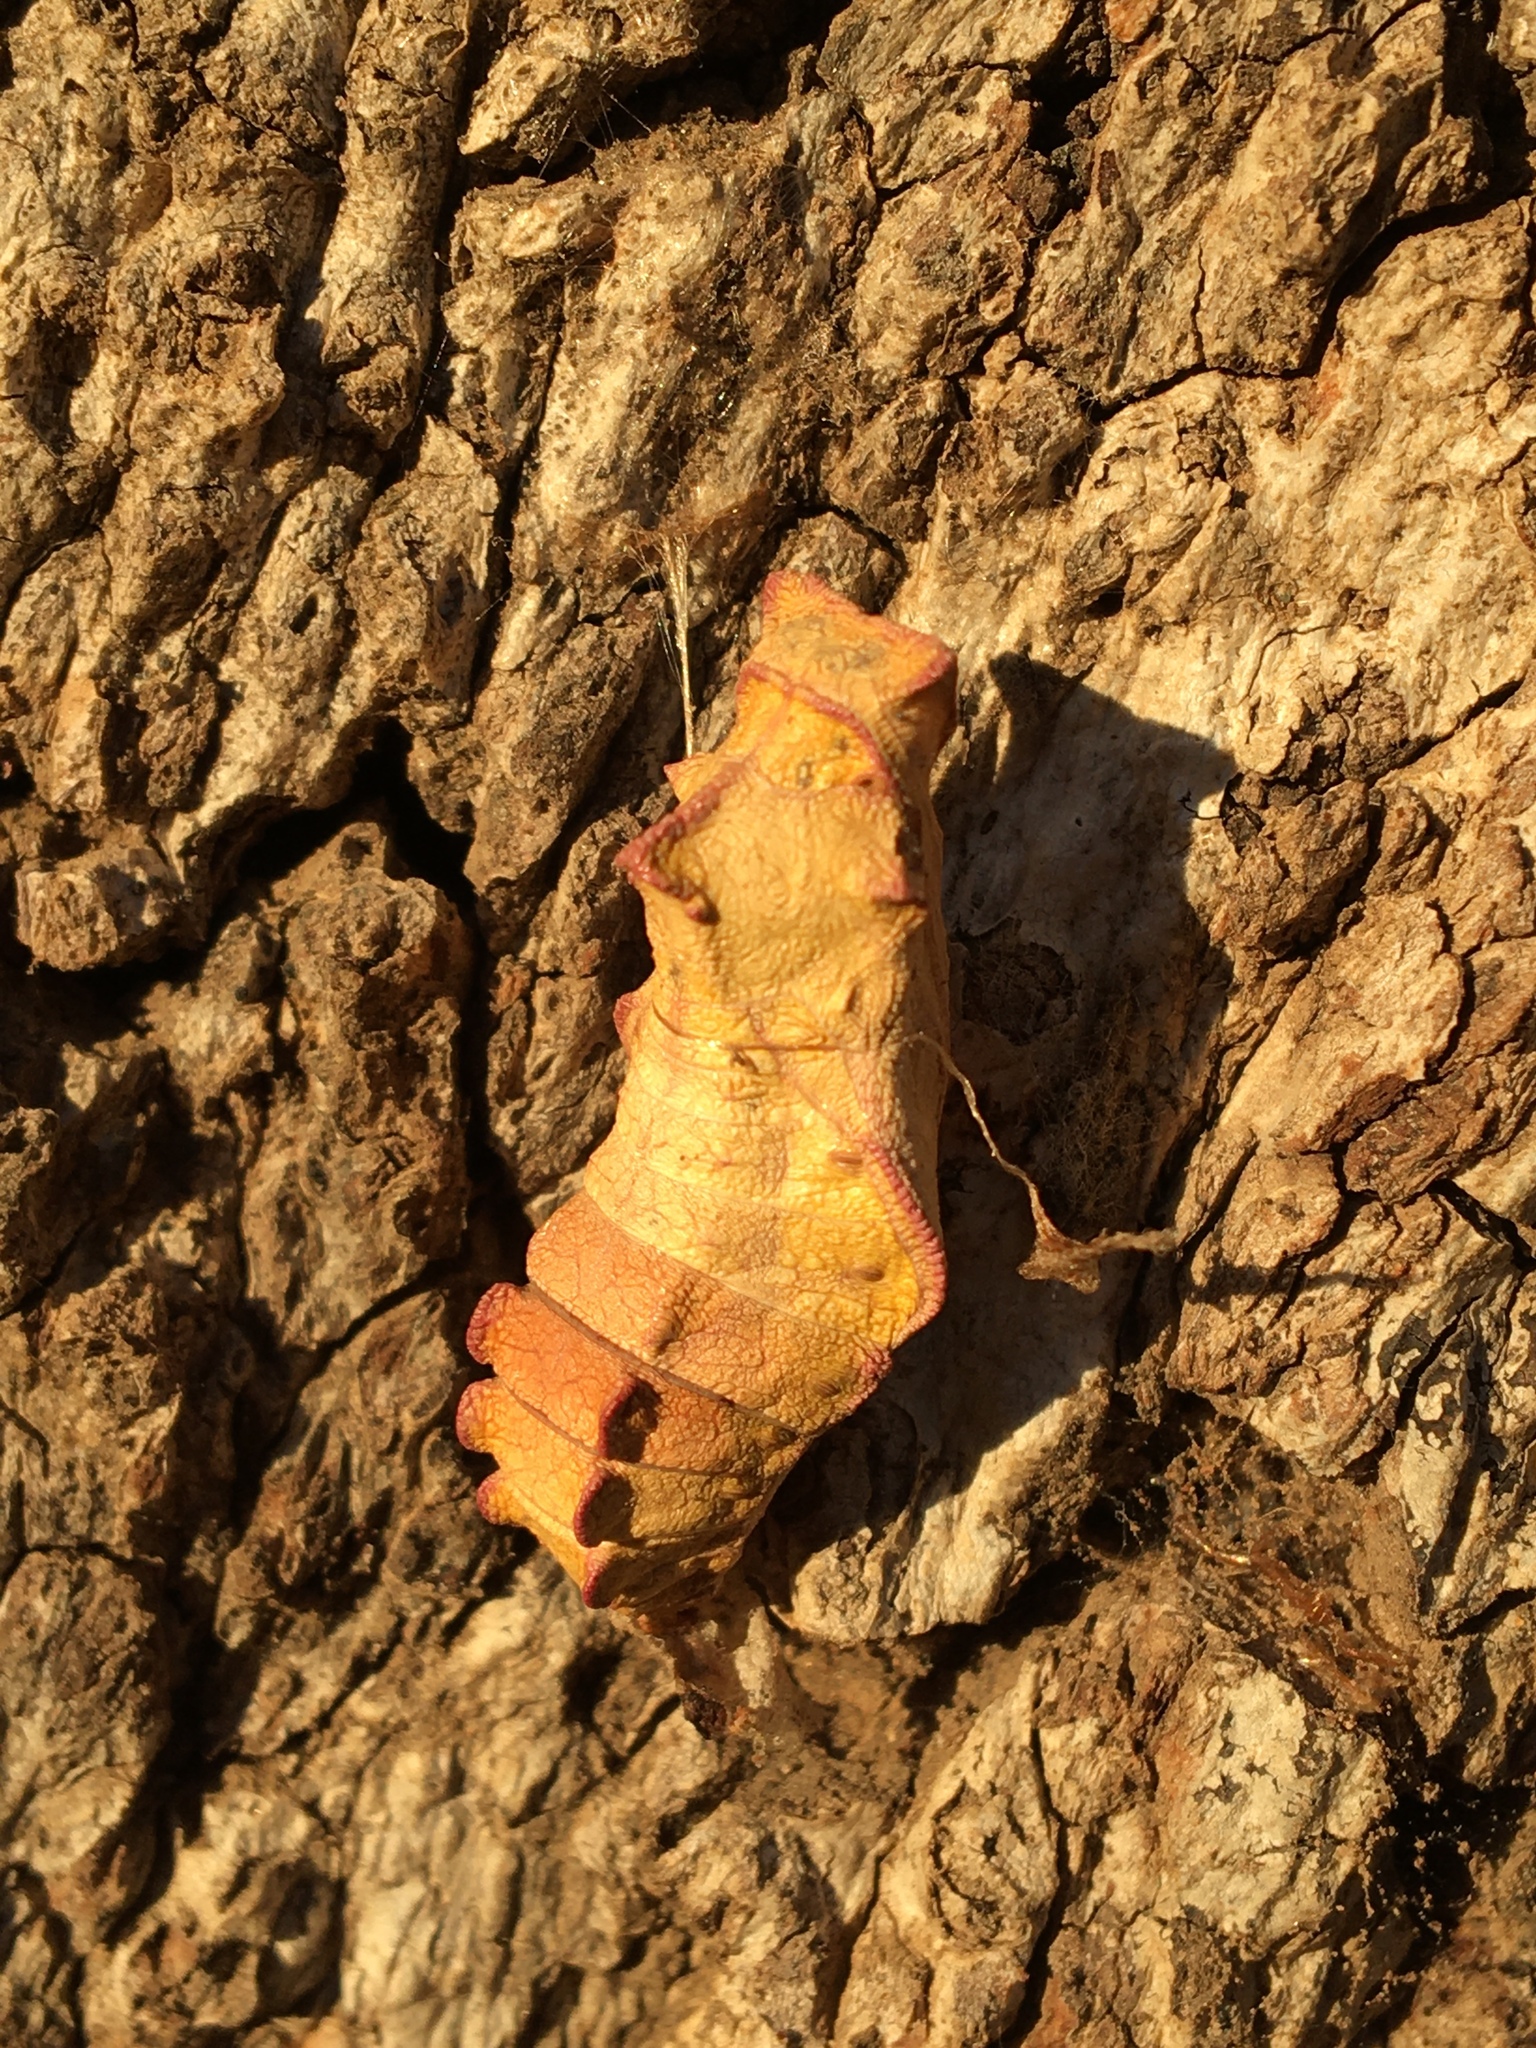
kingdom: Animalia
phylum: Arthropoda
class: Insecta
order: Lepidoptera
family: Papilionidae
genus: Battus
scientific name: Battus philenor
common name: Pipevine swallowtail
